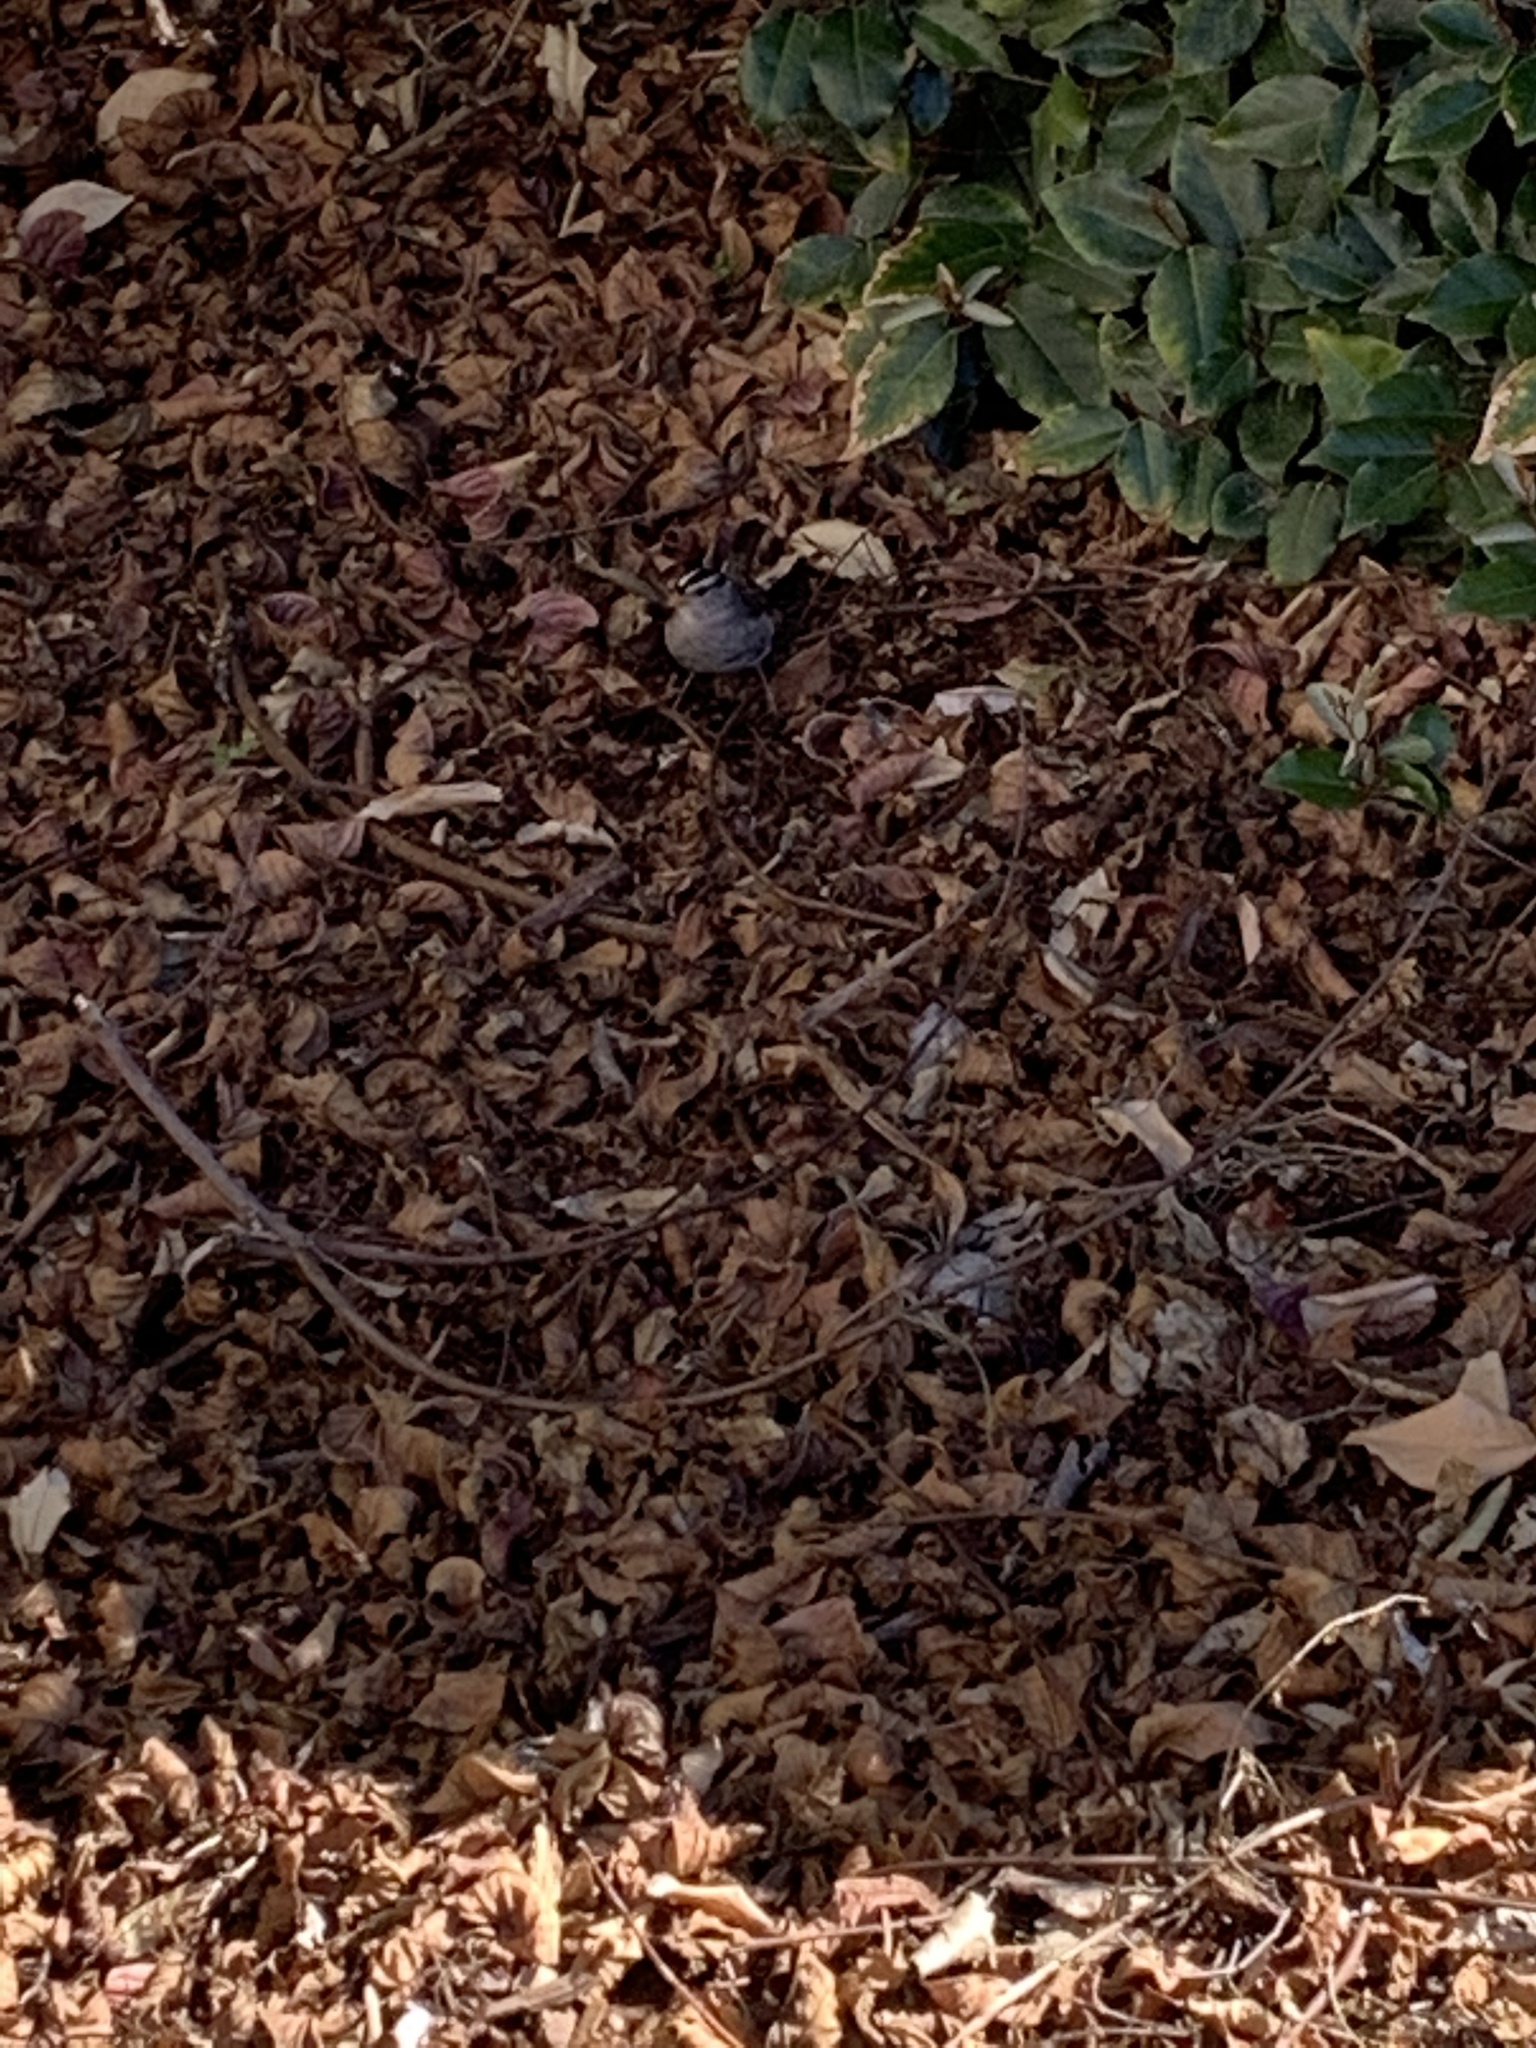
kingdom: Animalia
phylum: Chordata
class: Aves
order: Passeriformes
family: Passerellidae
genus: Zonotrichia
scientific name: Zonotrichia leucophrys
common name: White-crowned sparrow
